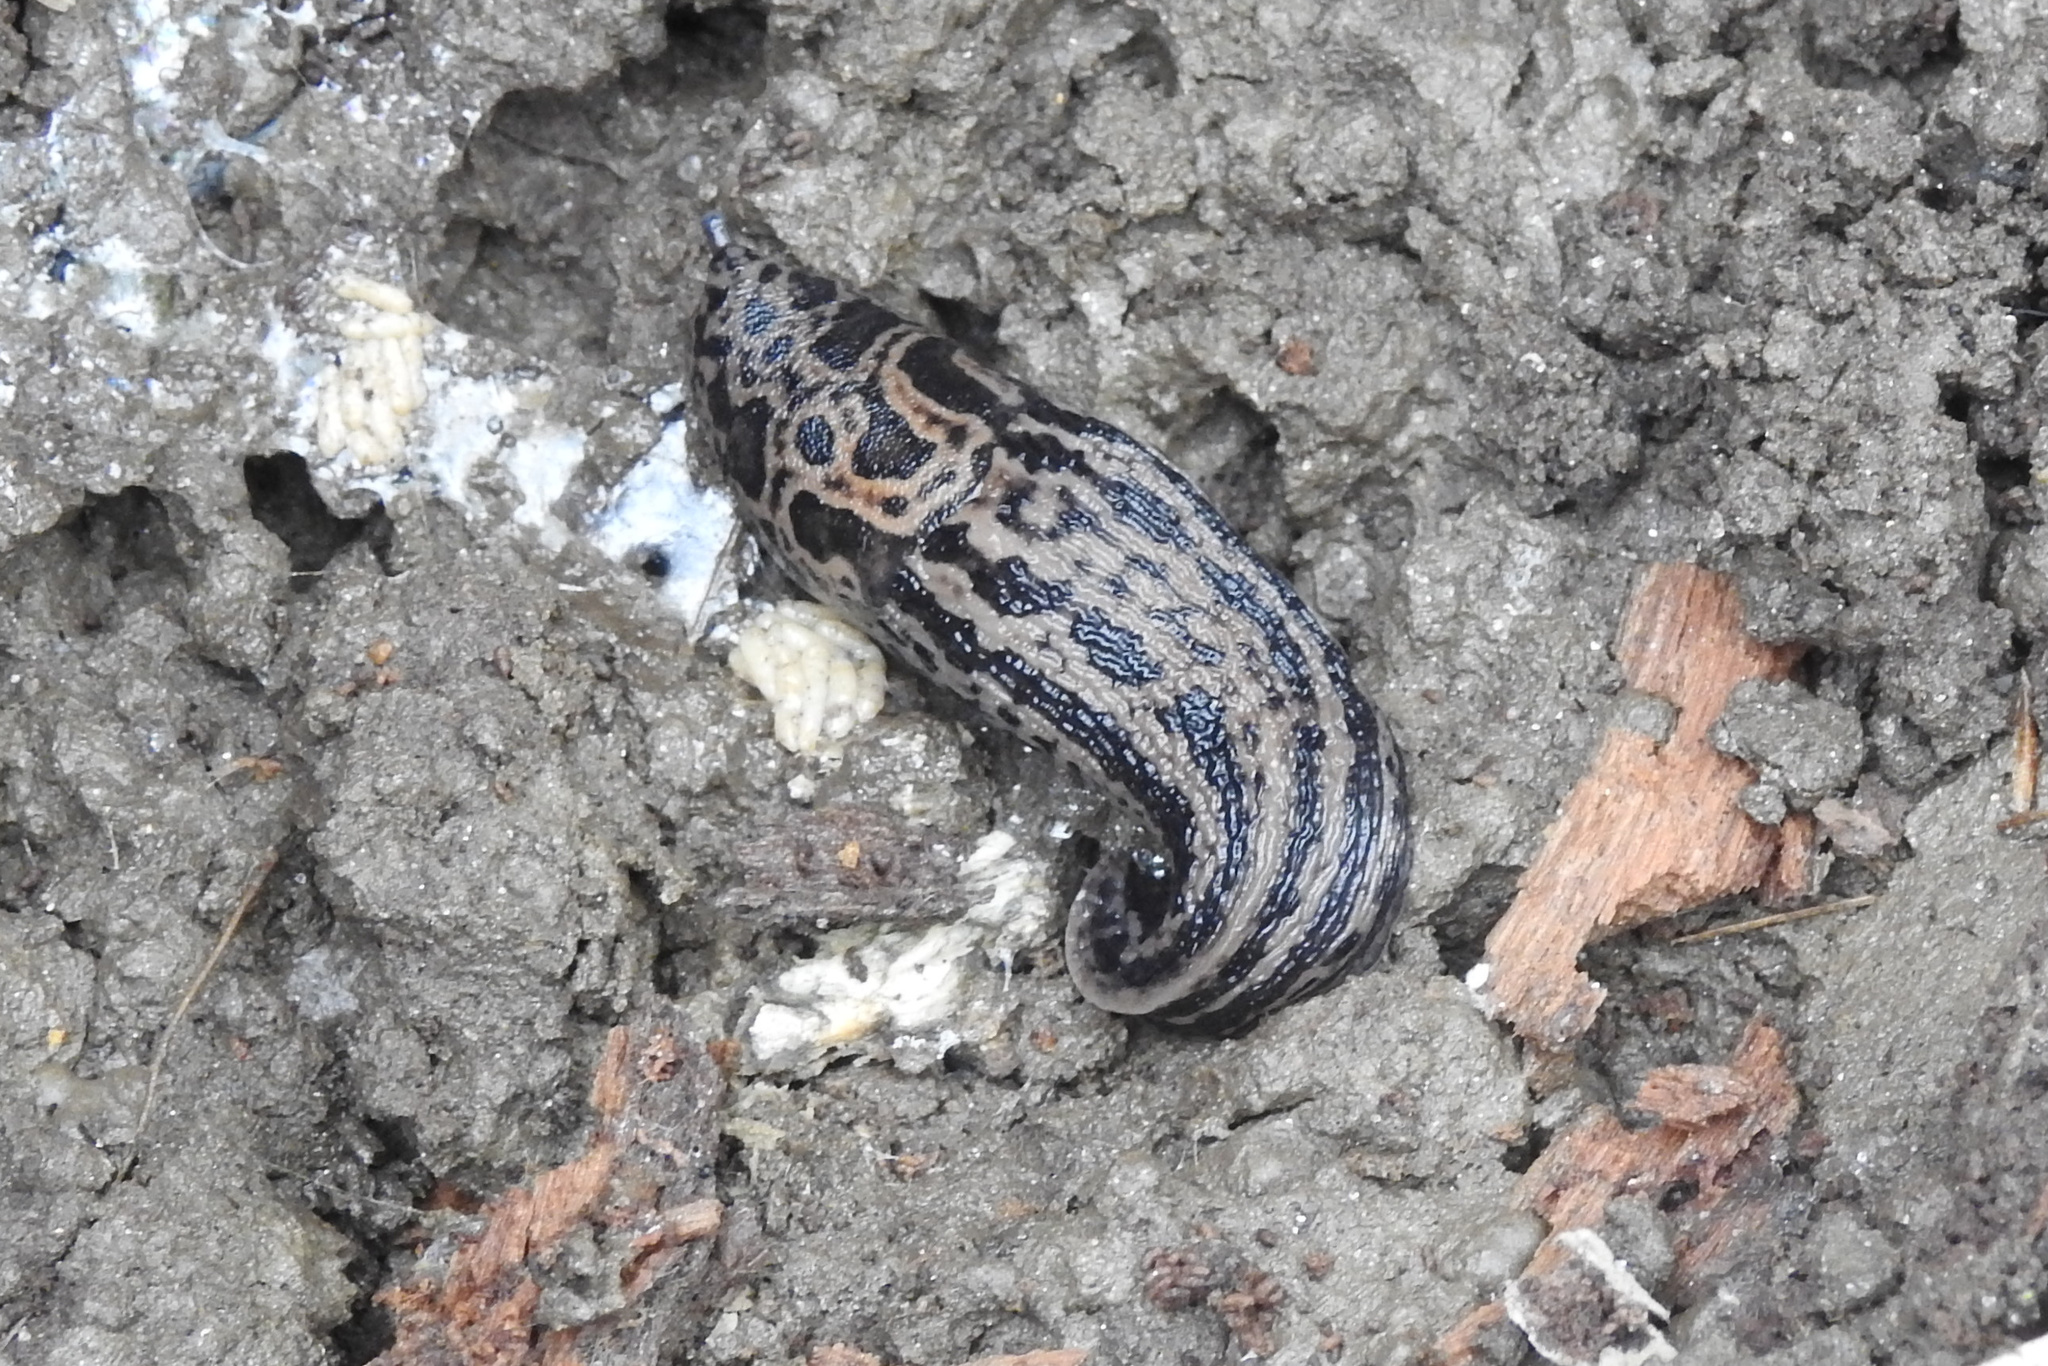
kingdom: Animalia
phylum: Mollusca
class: Gastropoda
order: Stylommatophora
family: Limacidae
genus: Limax
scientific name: Limax maximus
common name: Great grey slug
